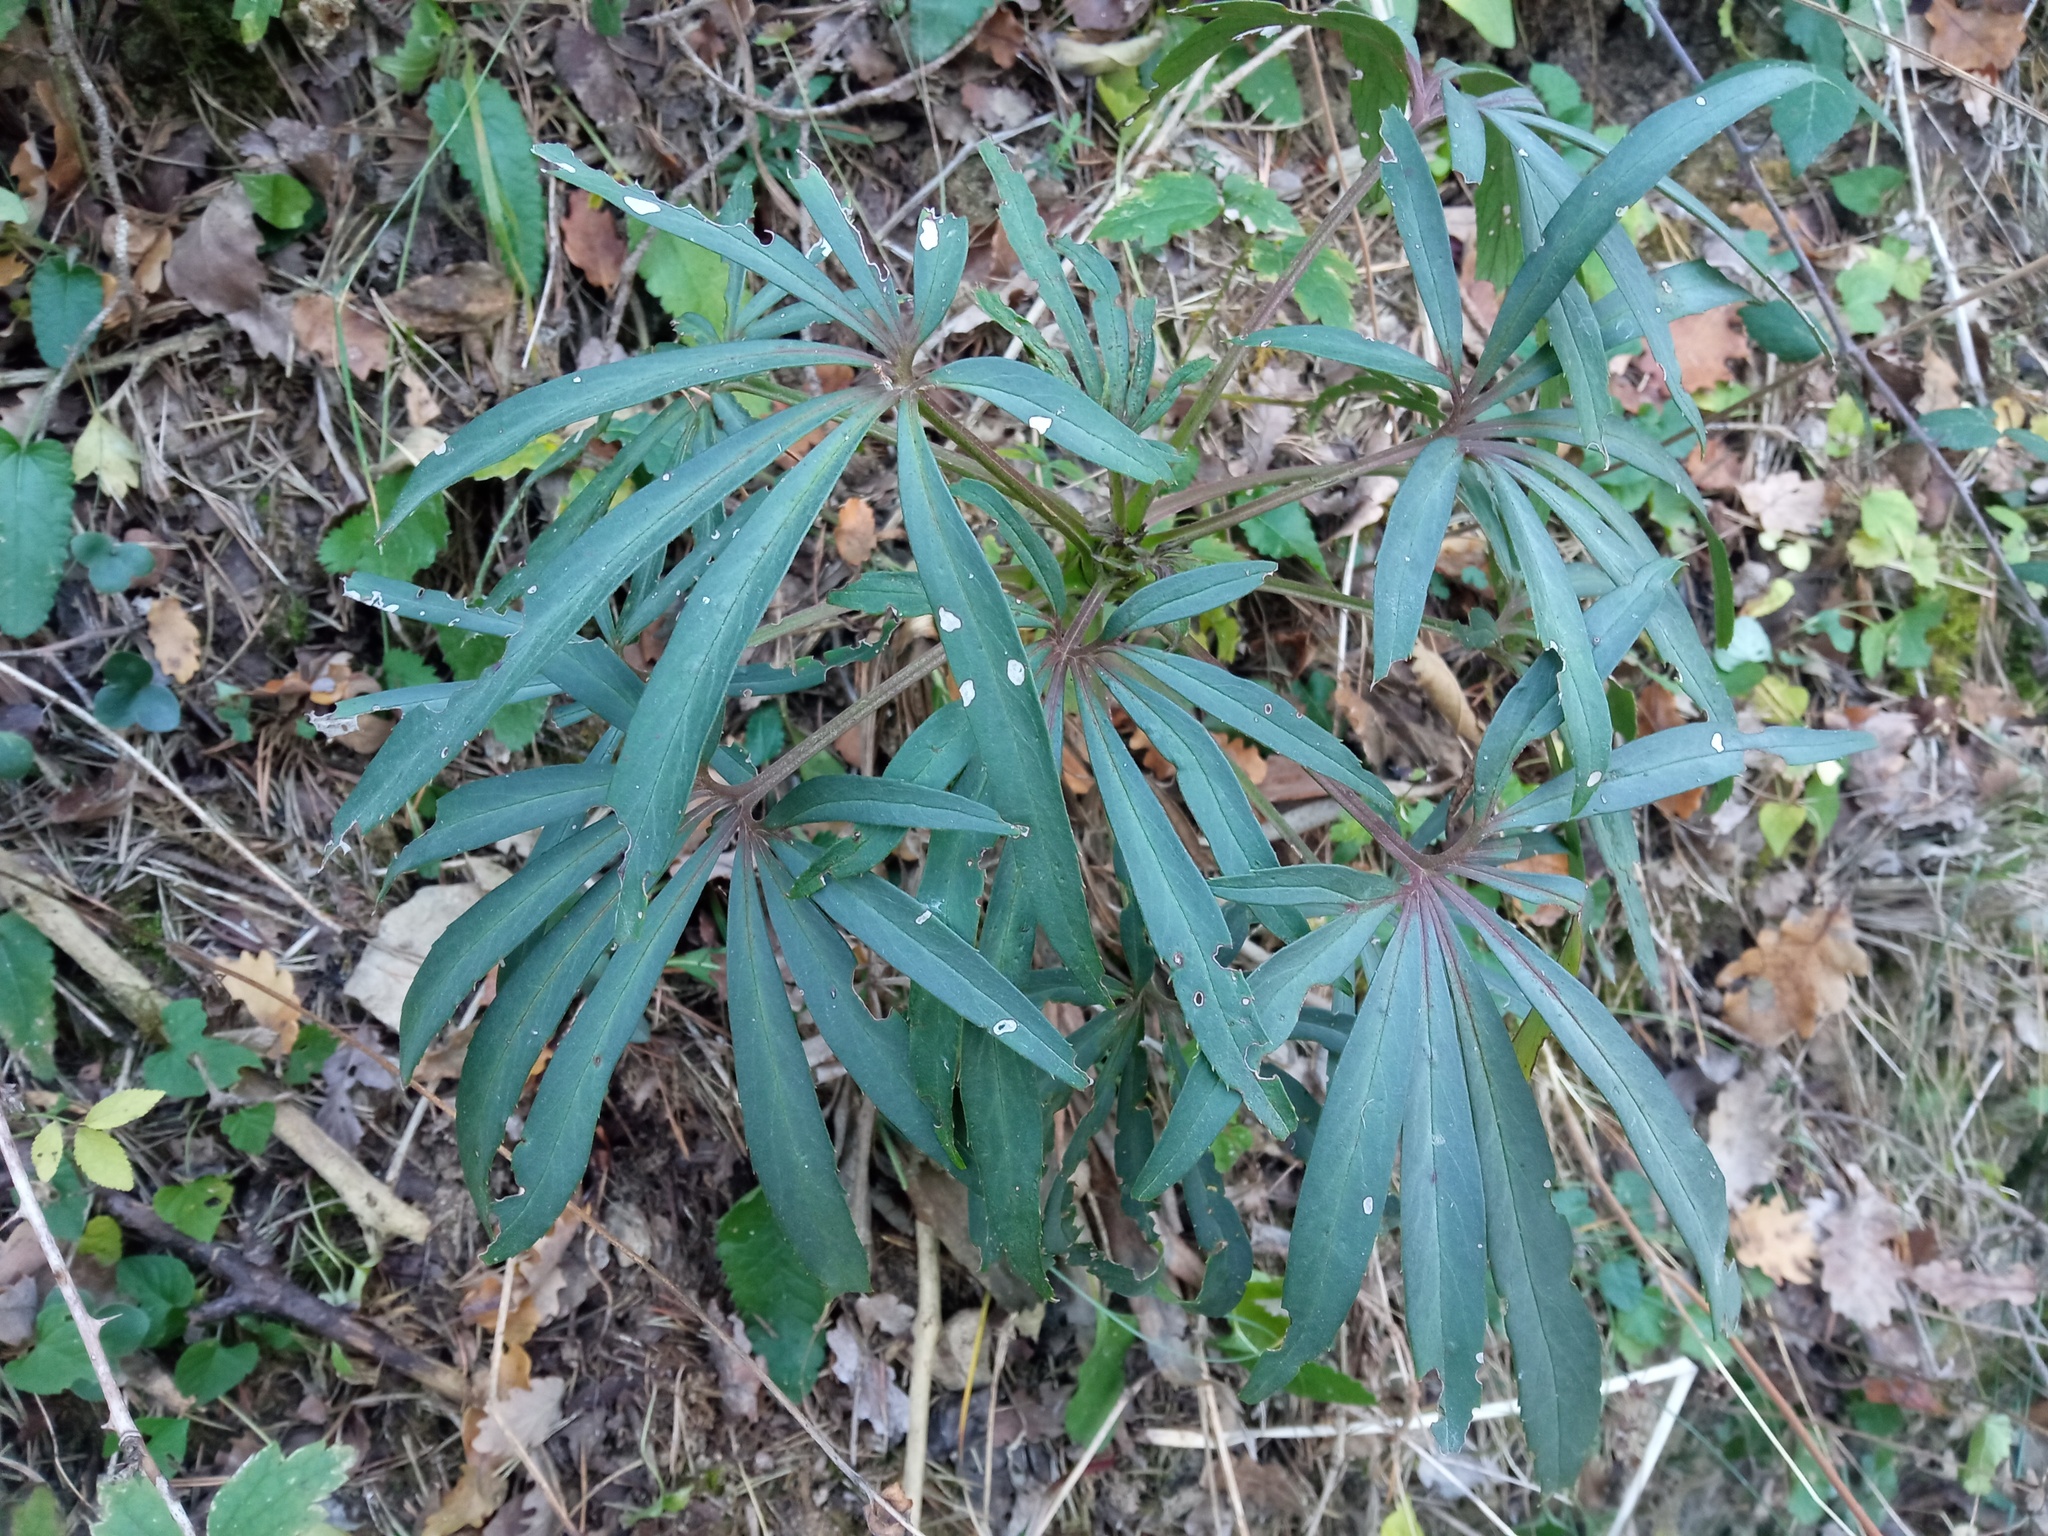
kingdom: Plantae
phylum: Tracheophyta
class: Magnoliopsida
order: Ranunculales
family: Ranunculaceae
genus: Helleborus
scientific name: Helleborus foetidus
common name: Stinking hellebore
